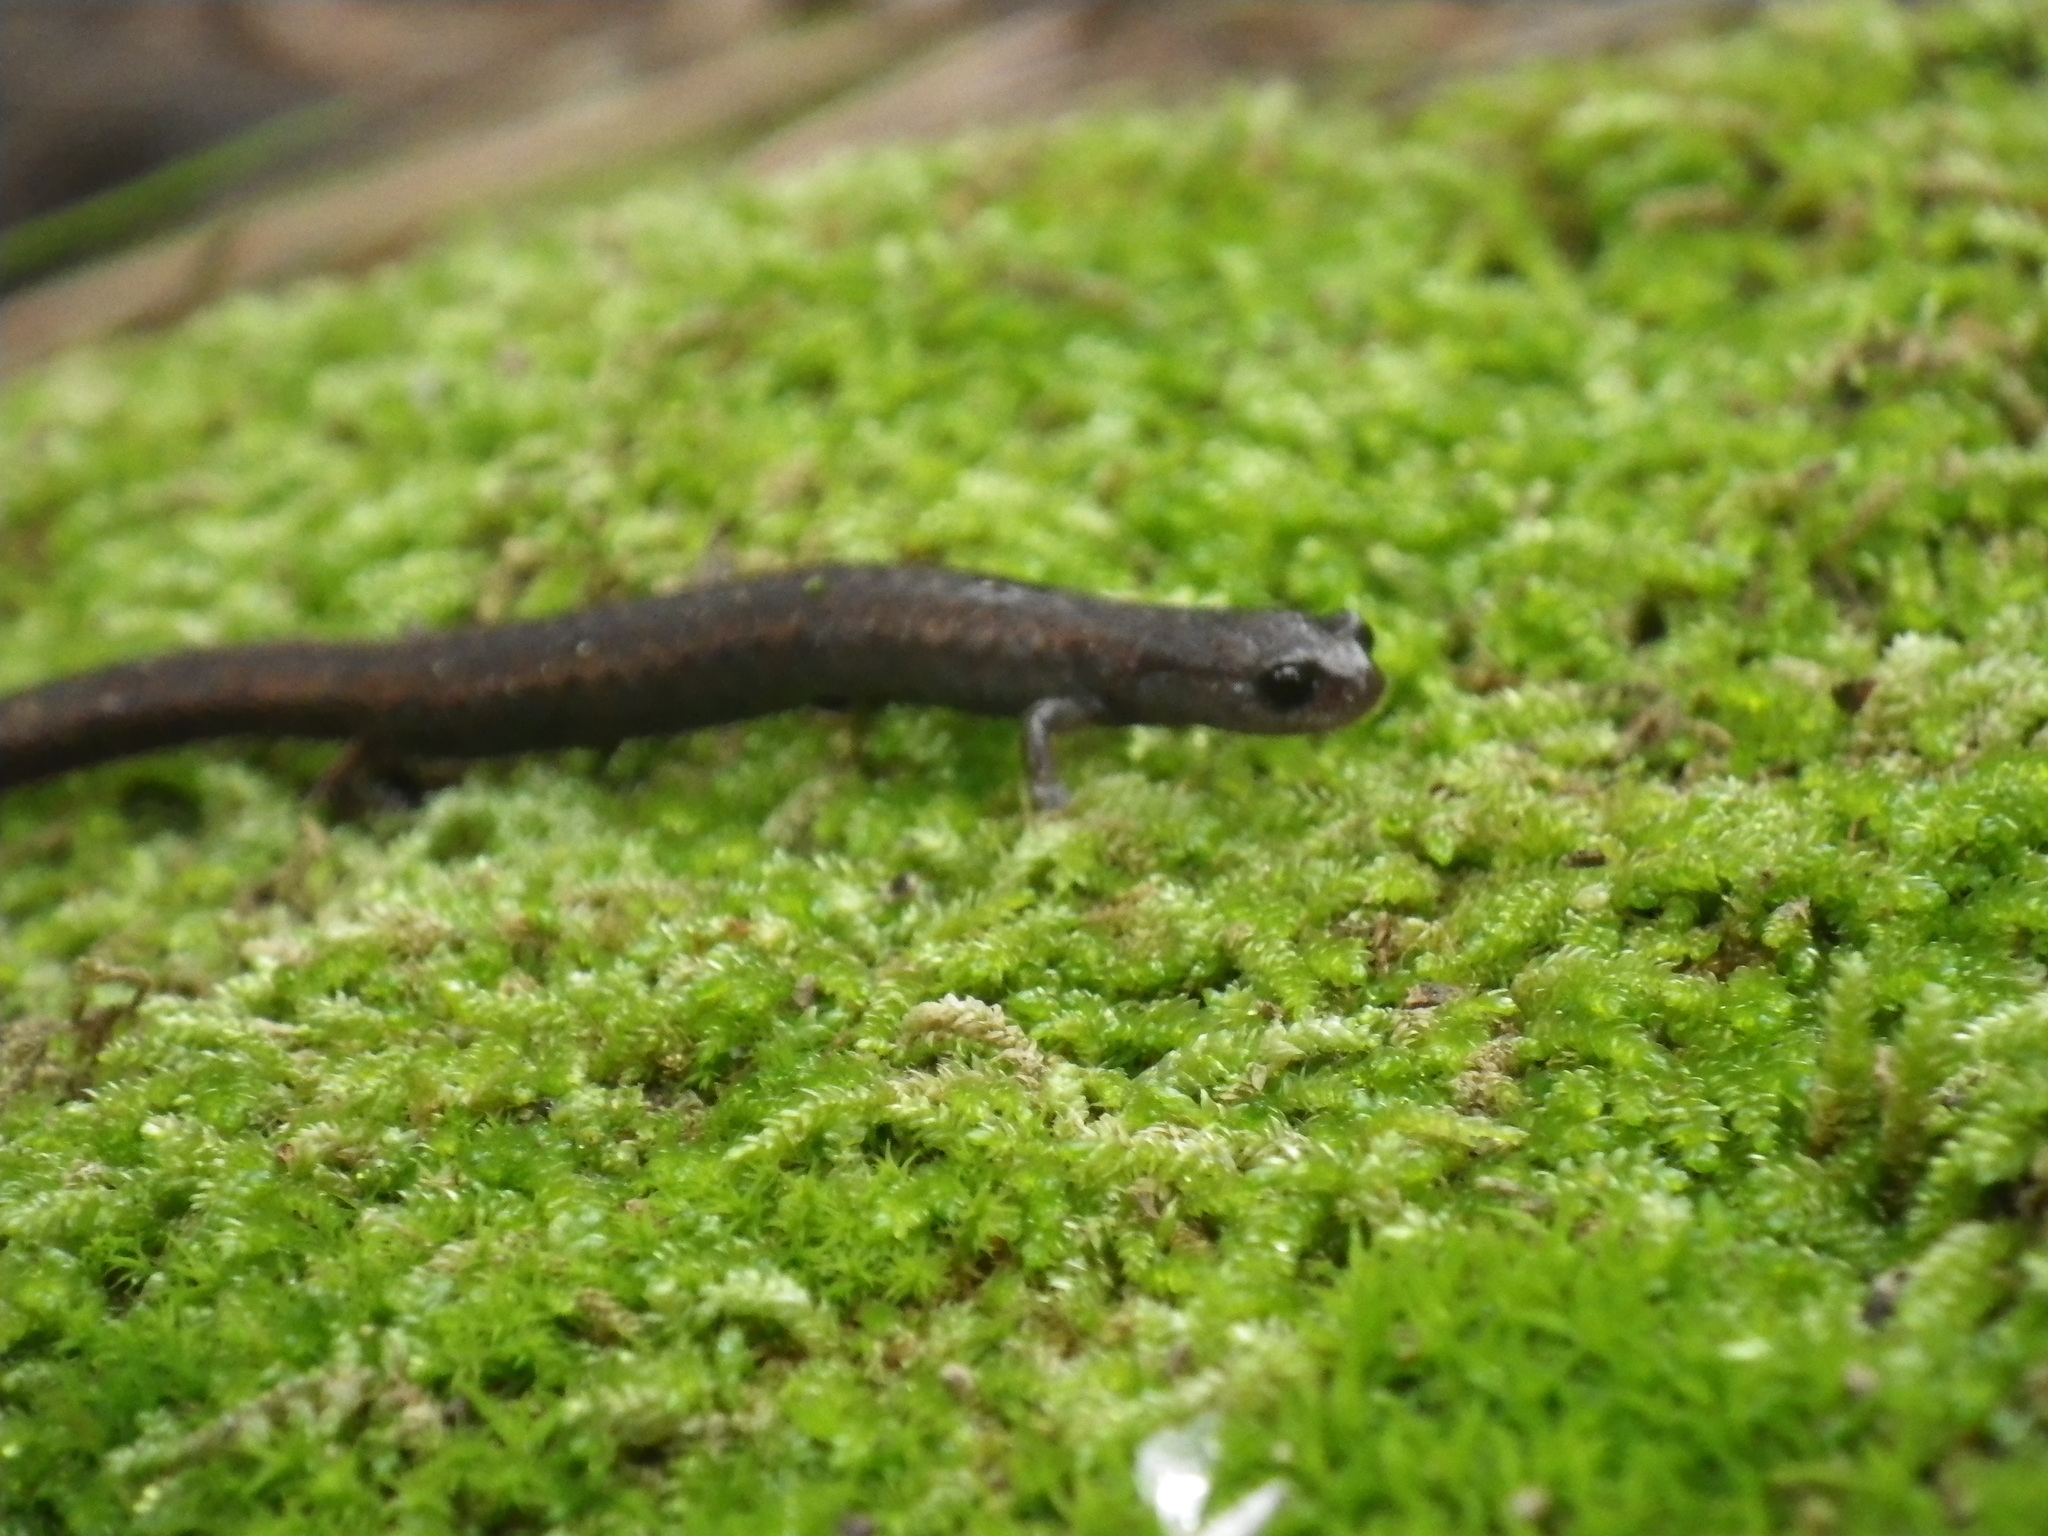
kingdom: Animalia
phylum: Chordata
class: Amphibia
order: Caudata
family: Plethodontidae
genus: Batrachoseps
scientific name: Batrachoseps attenuatus
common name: California slender salamander
